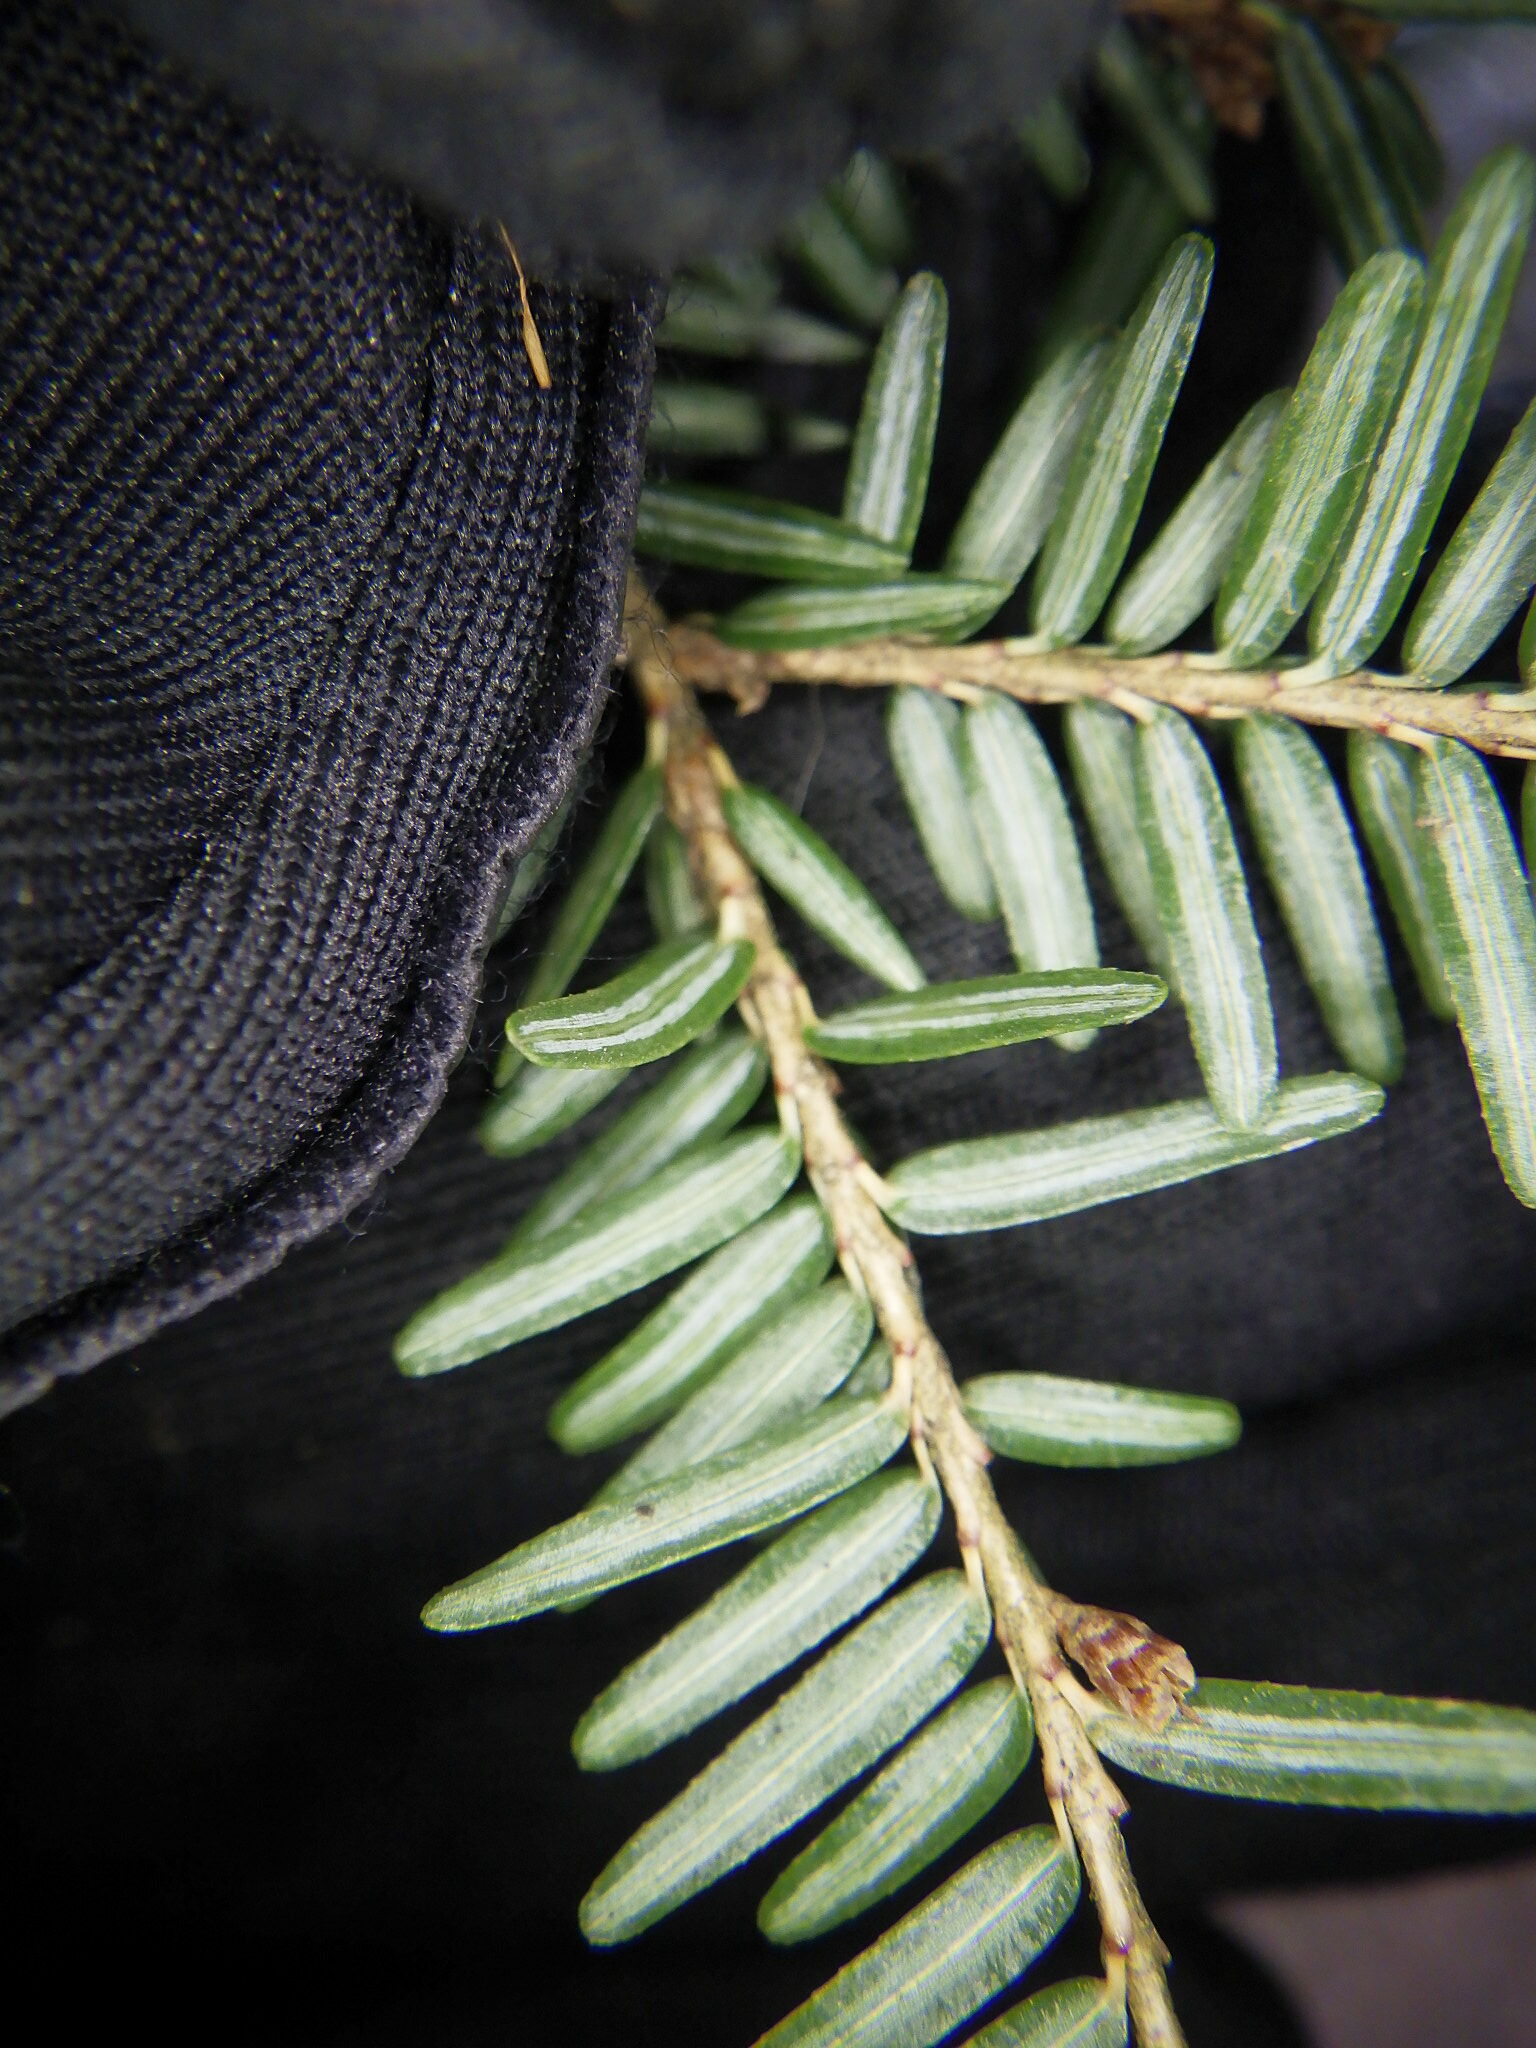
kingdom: Plantae
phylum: Tracheophyta
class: Pinopsida
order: Pinales
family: Pinaceae
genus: Tsuga
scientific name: Tsuga canadensis
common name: Eastern hemlock
